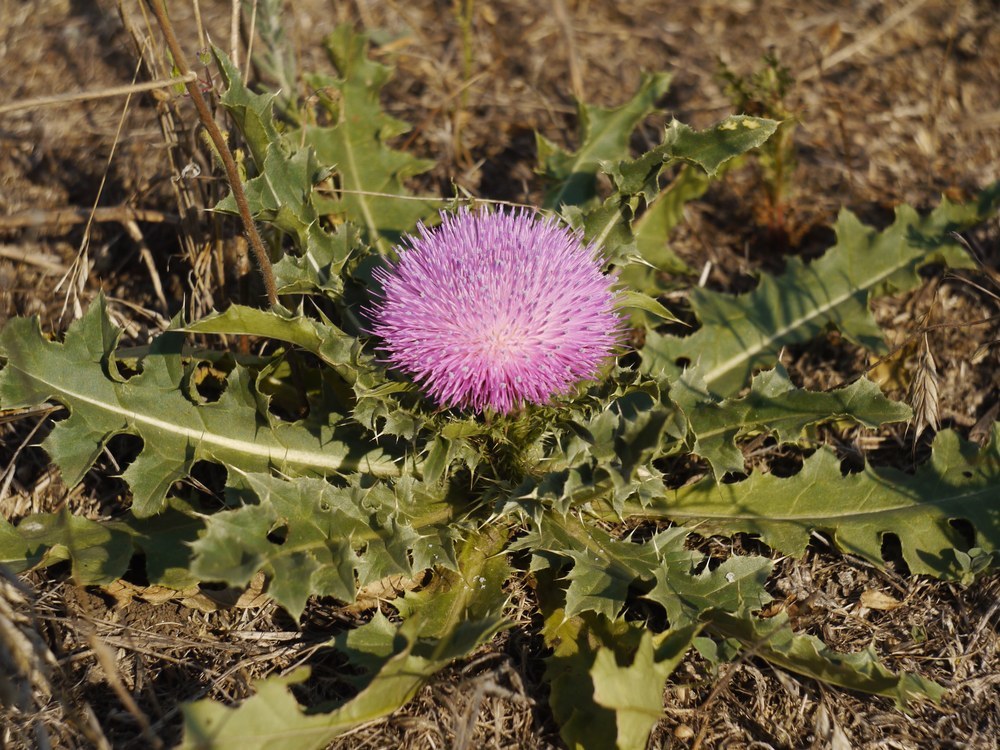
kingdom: Plantae
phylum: Tracheophyta
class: Magnoliopsida
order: Asterales
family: Asteraceae
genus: Cirsium
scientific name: Cirsium acaulon
